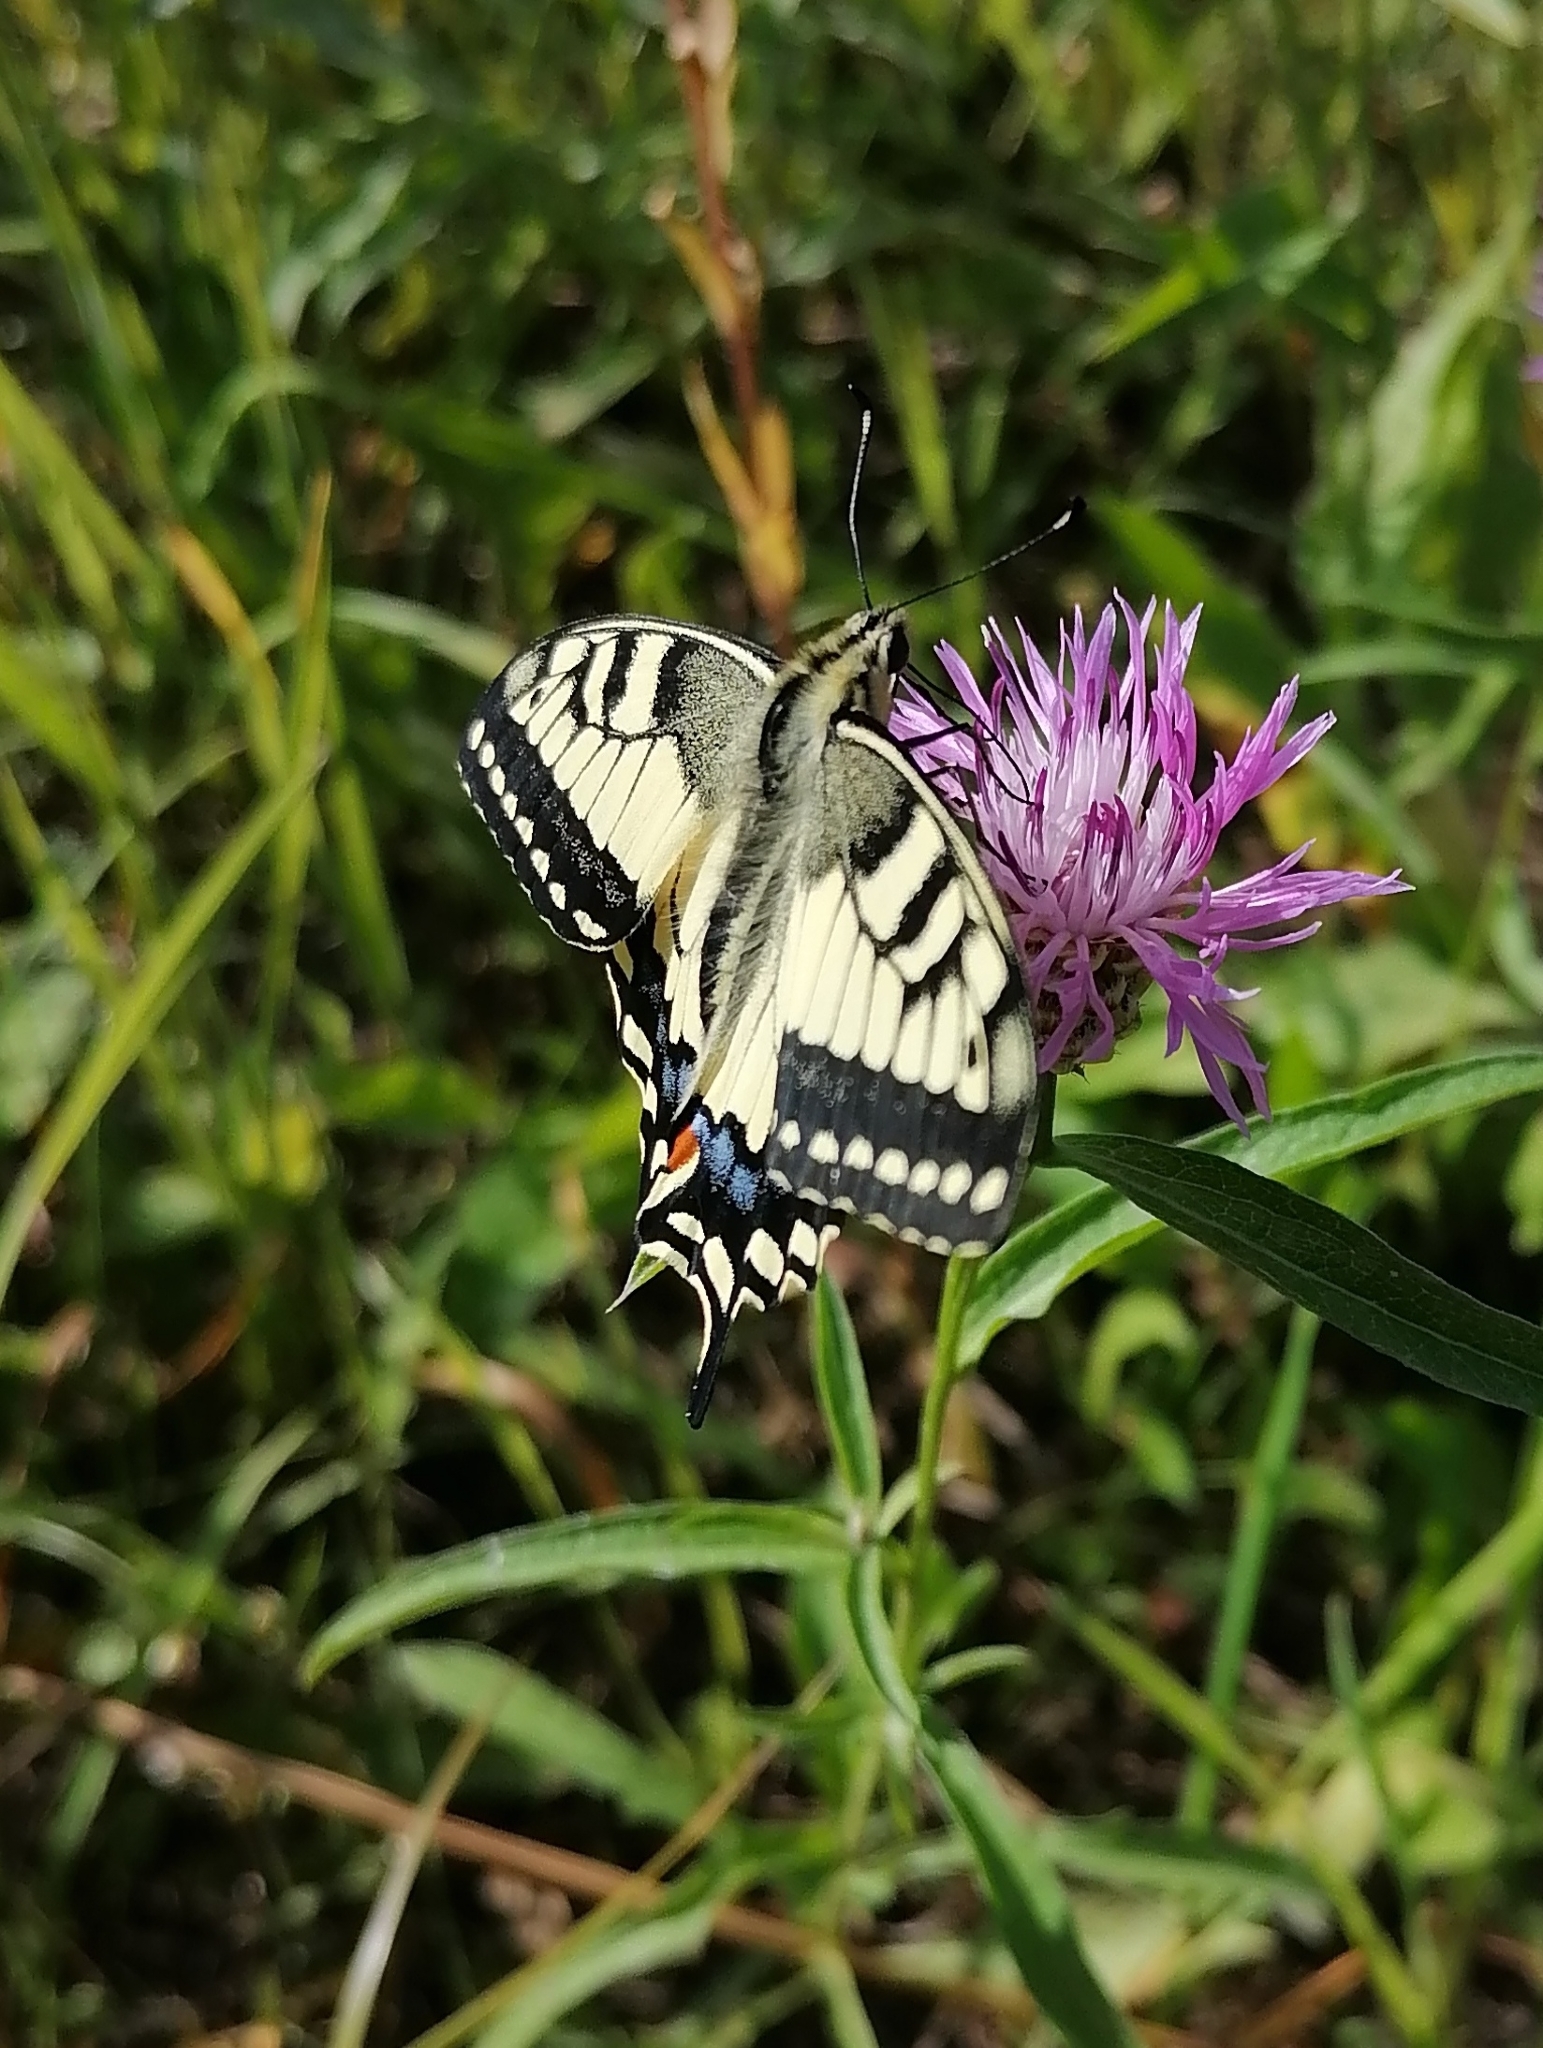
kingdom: Animalia
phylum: Arthropoda
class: Insecta
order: Lepidoptera
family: Papilionidae
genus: Papilio
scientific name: Papilio machaon
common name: Swallowtail
